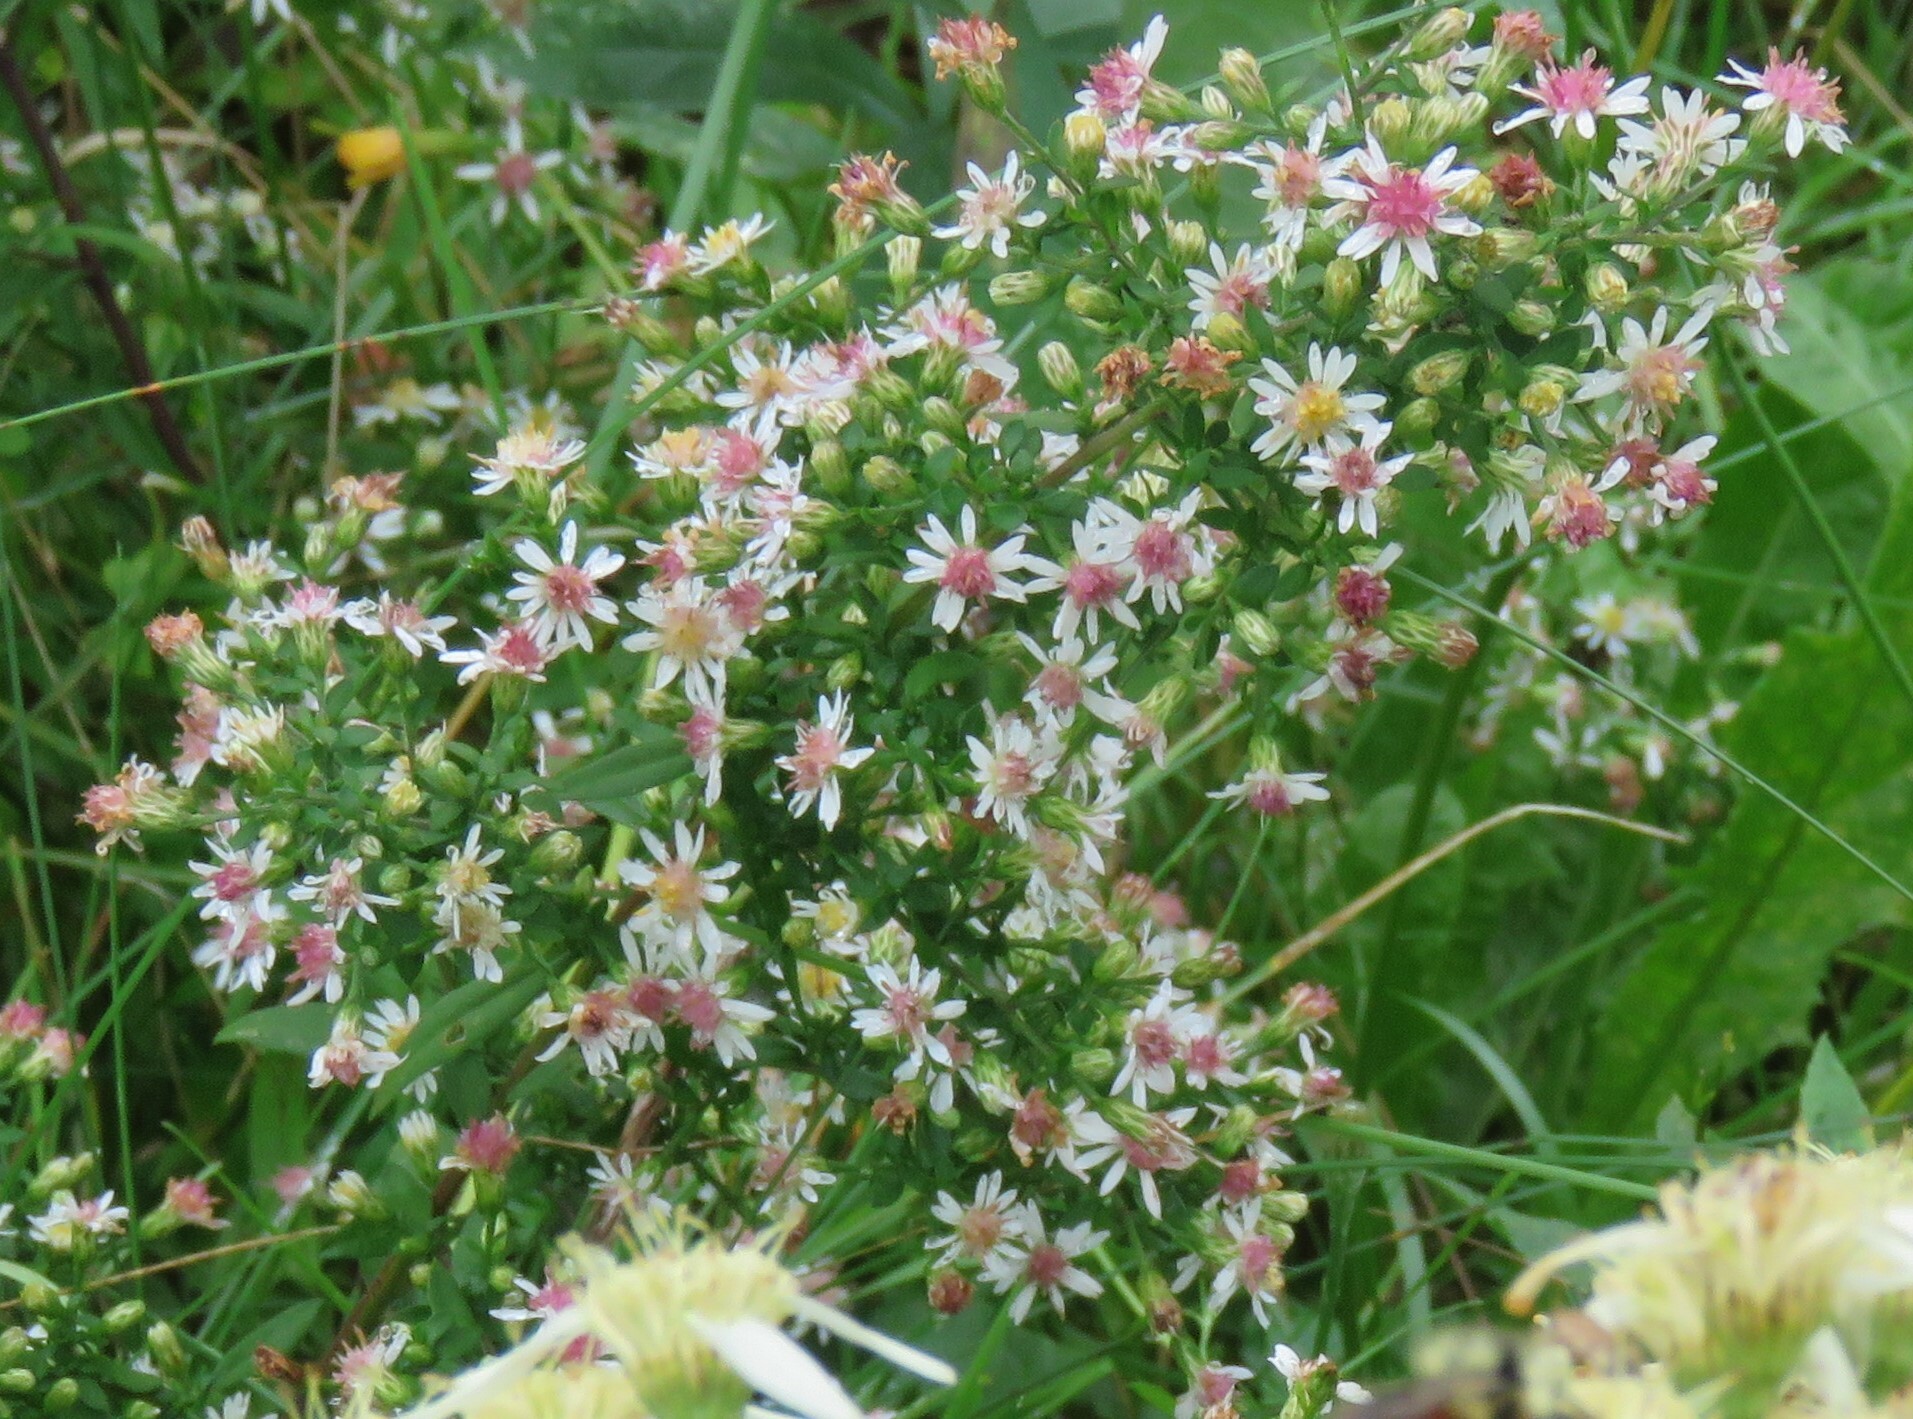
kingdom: Plantae
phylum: Tracheophyta
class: Magnoliopsida
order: Asterales
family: Asteraceae
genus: Symphyotrichum
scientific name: Symphyotrichum lateriflorum
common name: Calico aster
